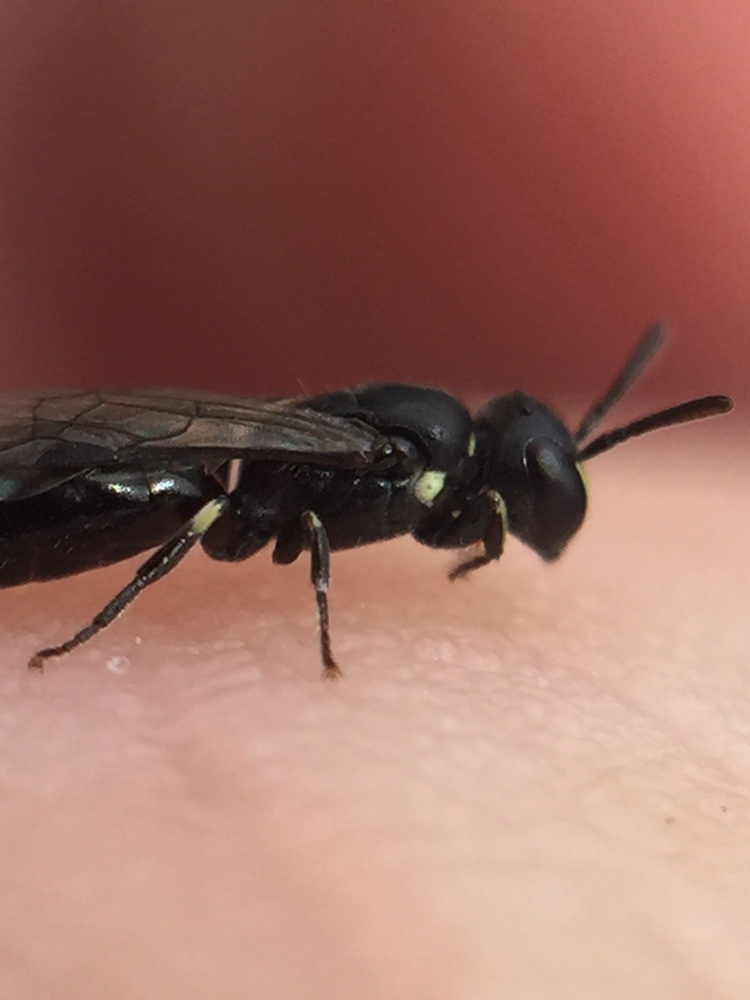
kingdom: Animalia
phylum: Arthropoda
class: Insecta
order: Hymenoptera
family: Colletidae
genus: Hylaeus
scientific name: Hylaeus perhumilis
